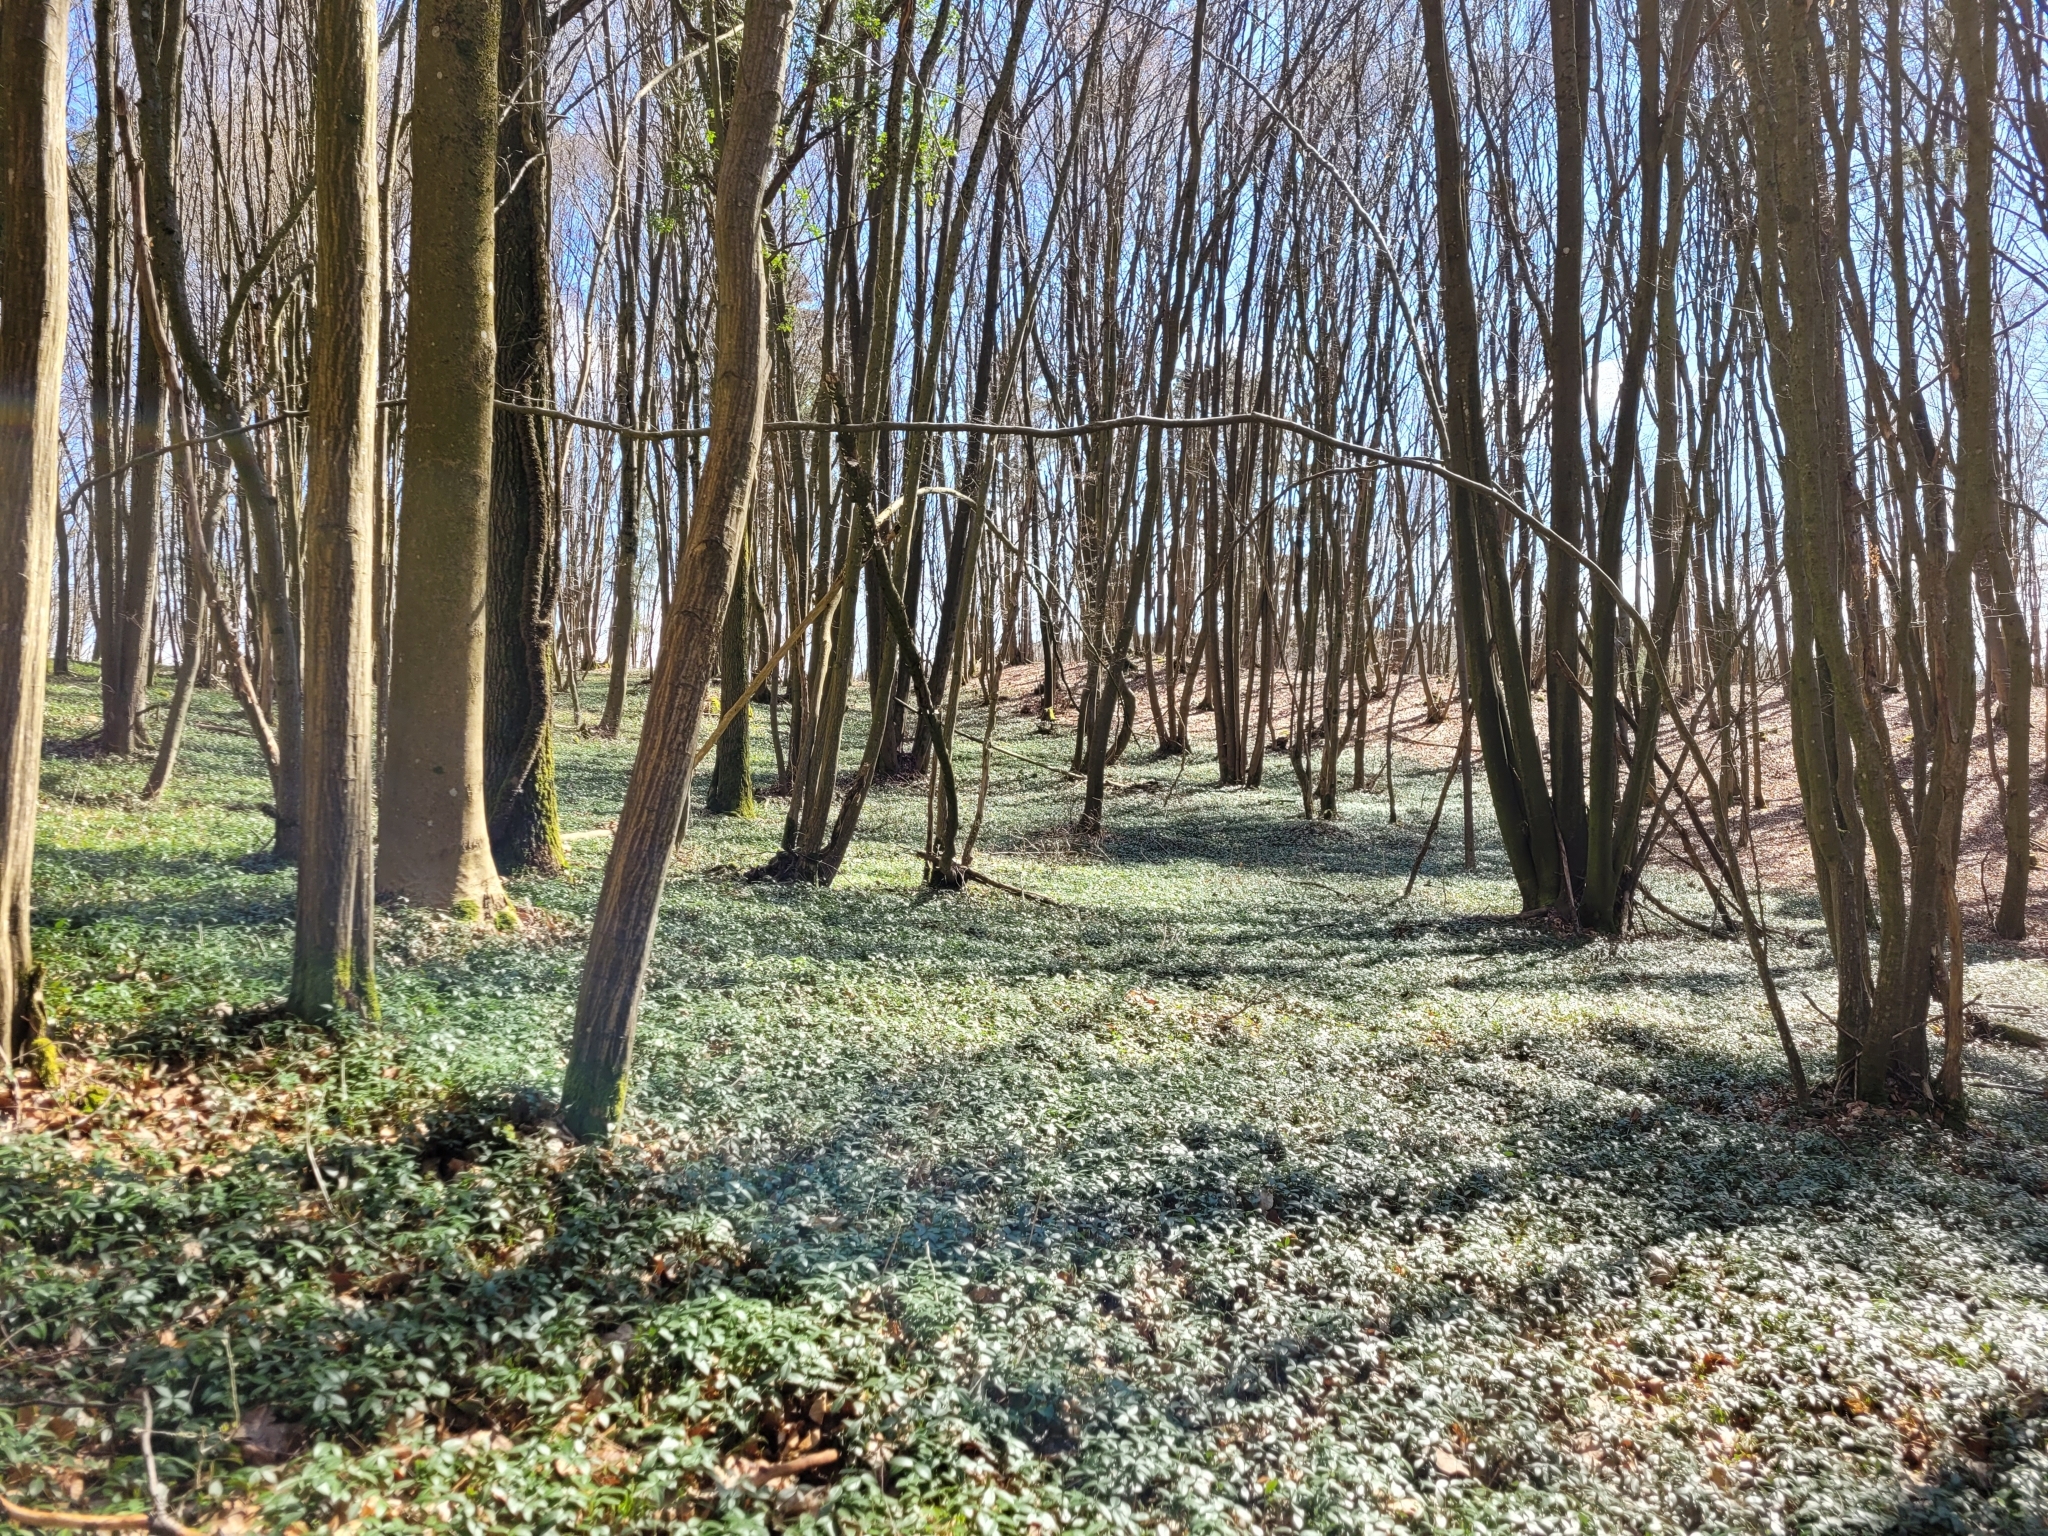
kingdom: Plantae
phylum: Tracheophyta
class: Magnoliopsida
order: Gentianales
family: Apocynaceae
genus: Vinca
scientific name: Vinca minor
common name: Lesser periwinkle
